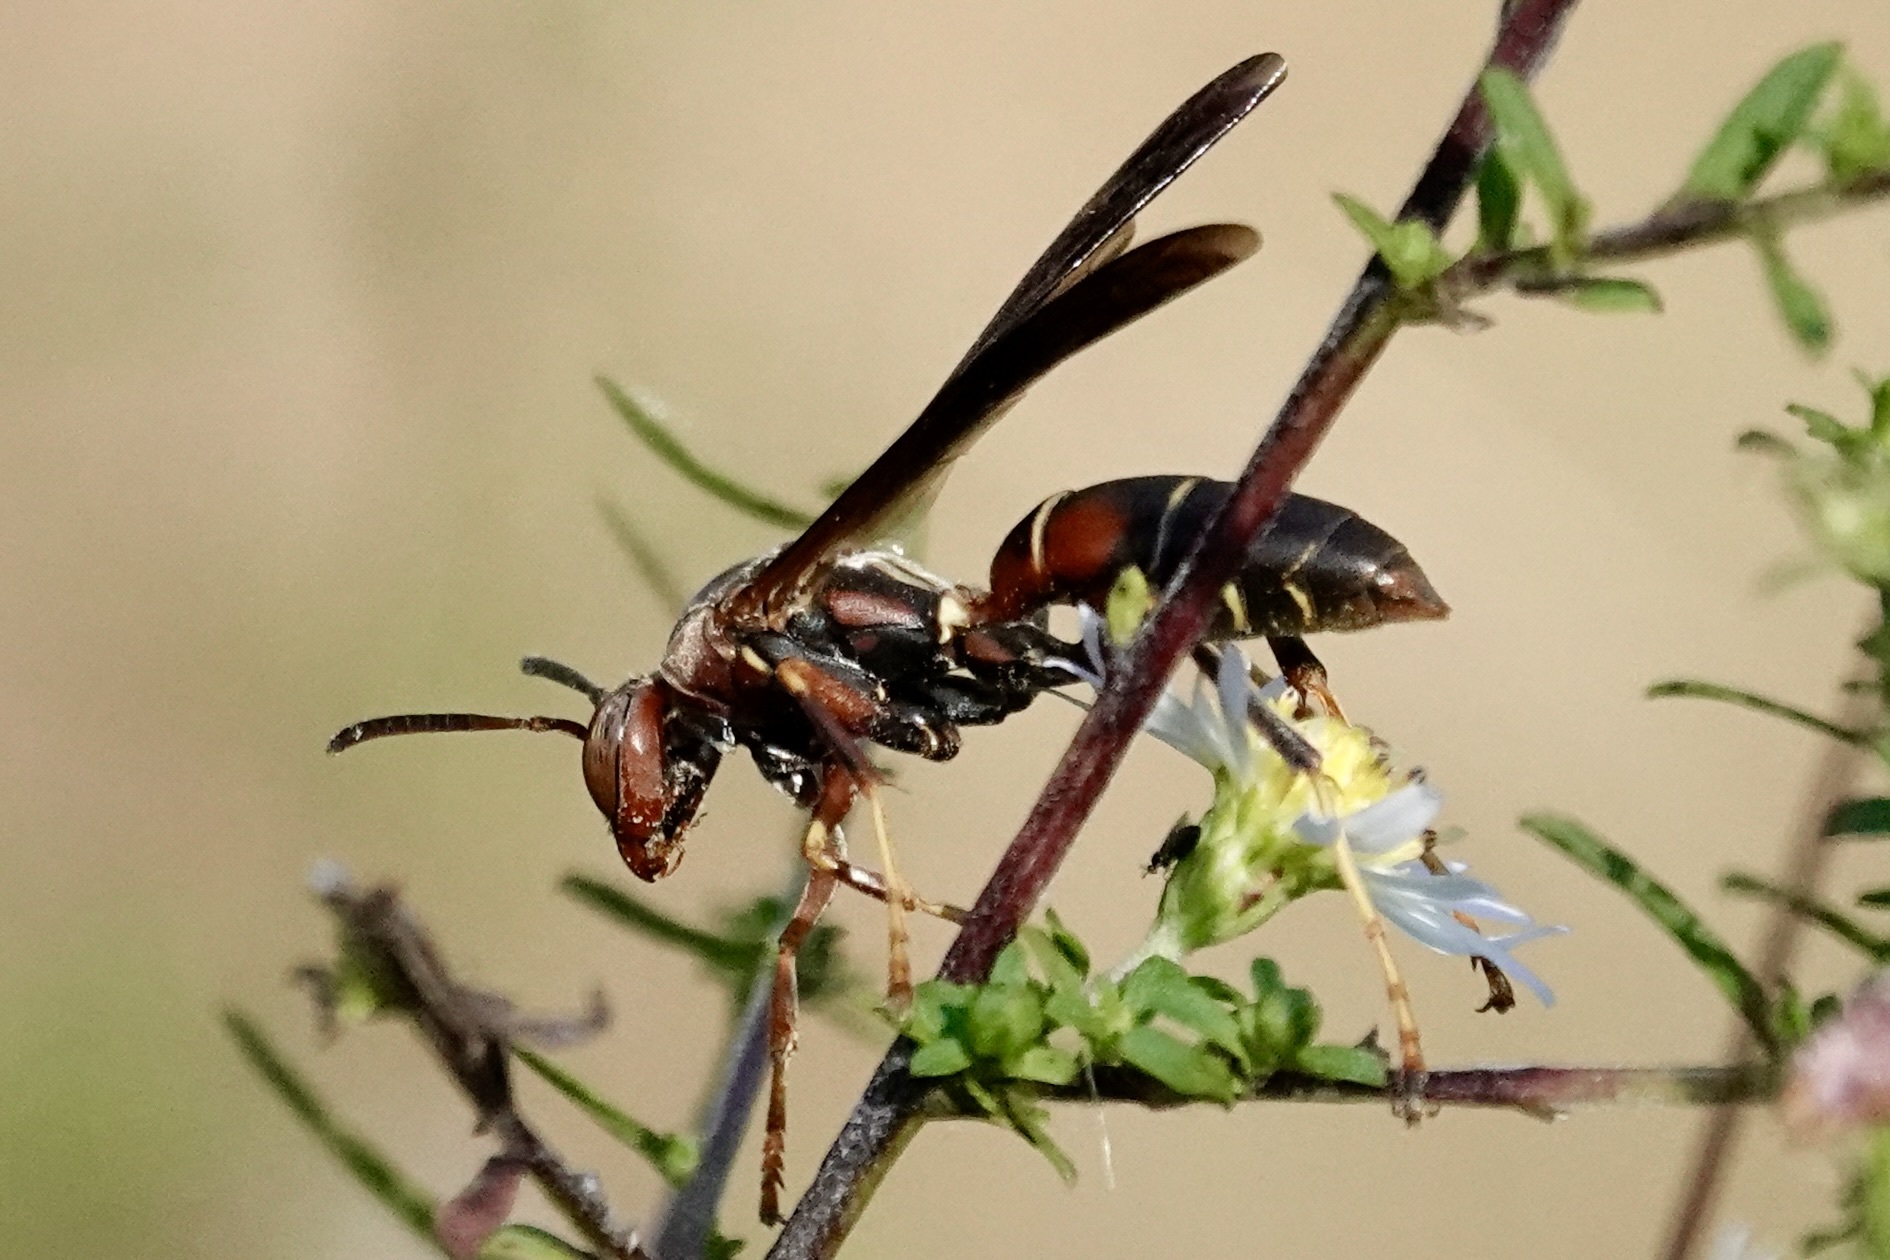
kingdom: Animalia
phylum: Arthropoda
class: Insecta
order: Hymenoptera
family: Eumenidae
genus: Polistes
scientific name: Polistes fuscatus
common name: Dark paper wasp
